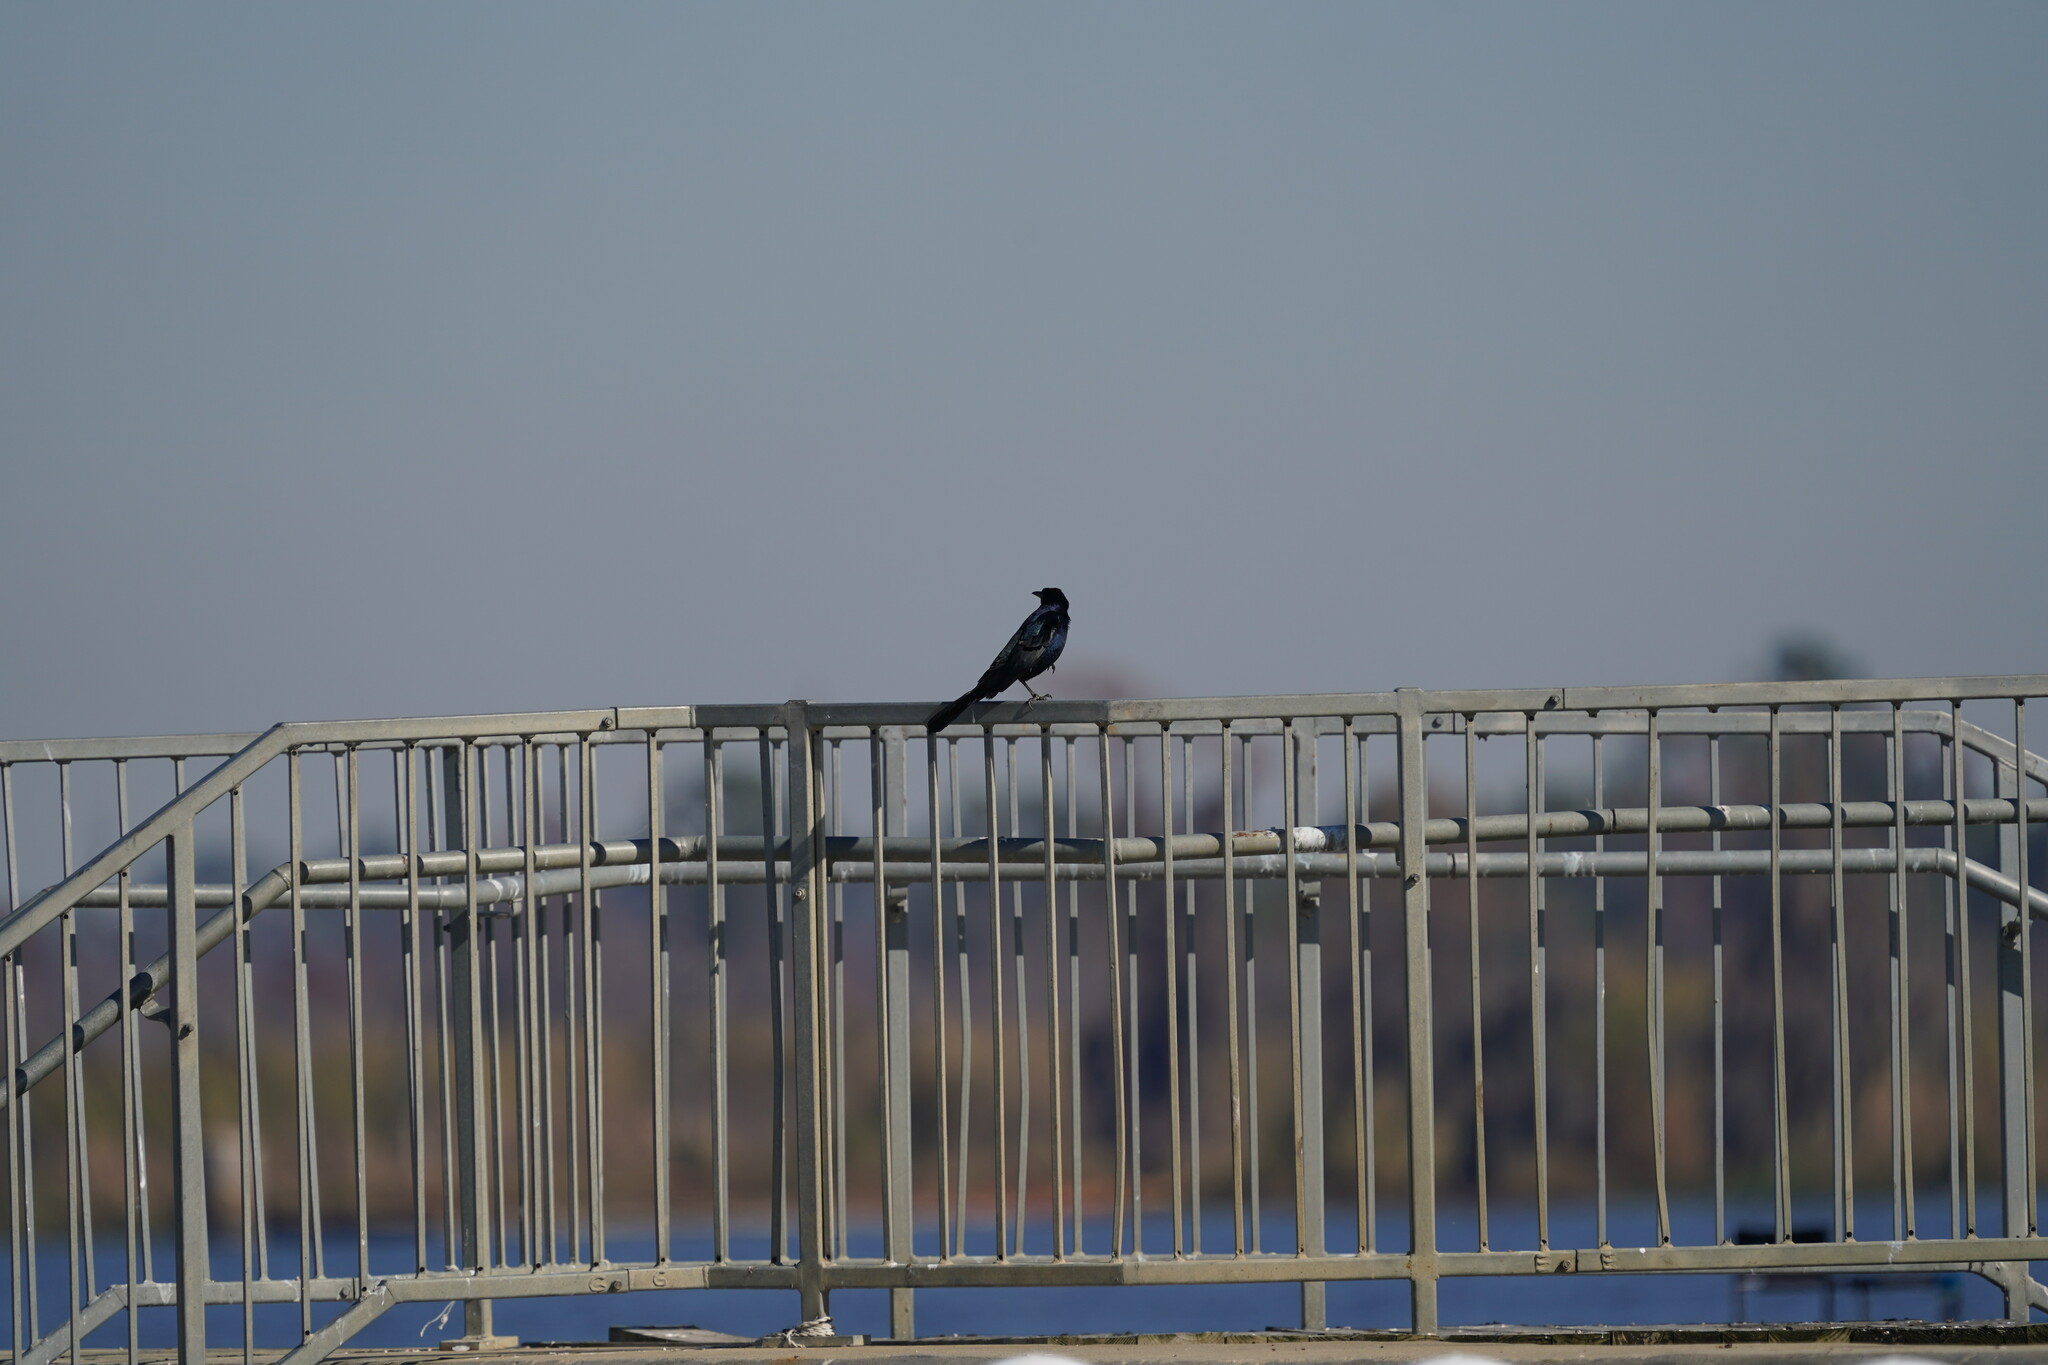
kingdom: Animalia
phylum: Chordata
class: Aves
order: Passeriformes
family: Icteridae
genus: Quiscalus
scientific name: Quiscalus major
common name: Boat-tailed grackle
